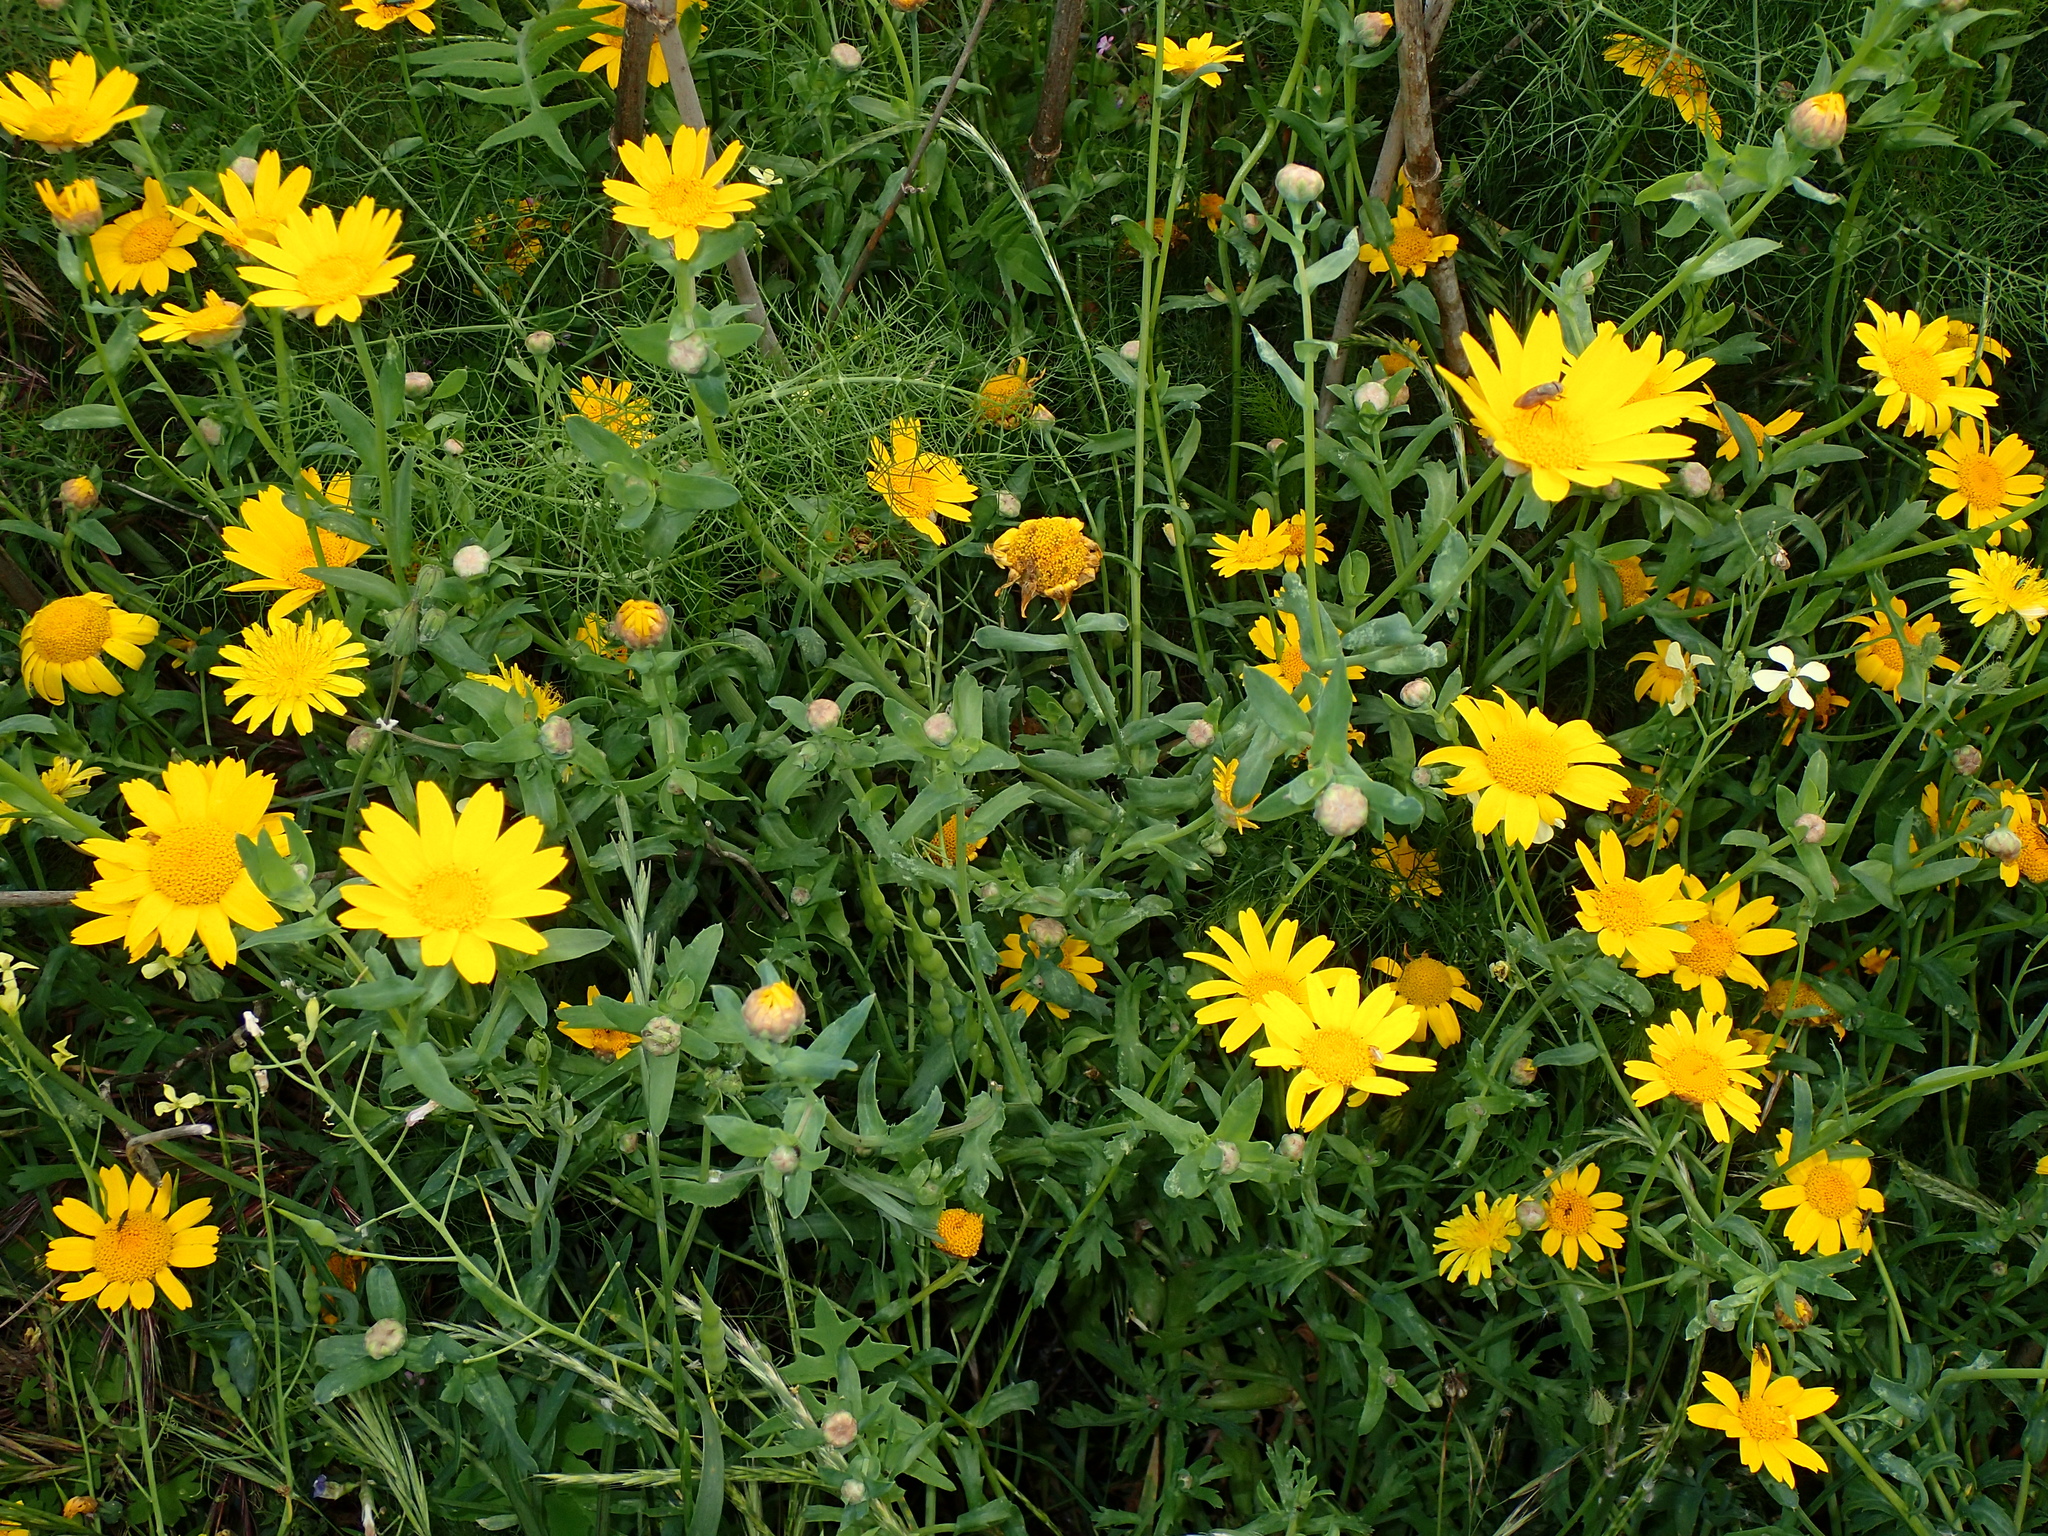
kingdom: Plantae
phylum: Tracheophyta
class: Magnoliopsida
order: Asterales
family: Asteraceae
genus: Glebionis
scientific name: Glebionis segetum
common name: Corndaisy
